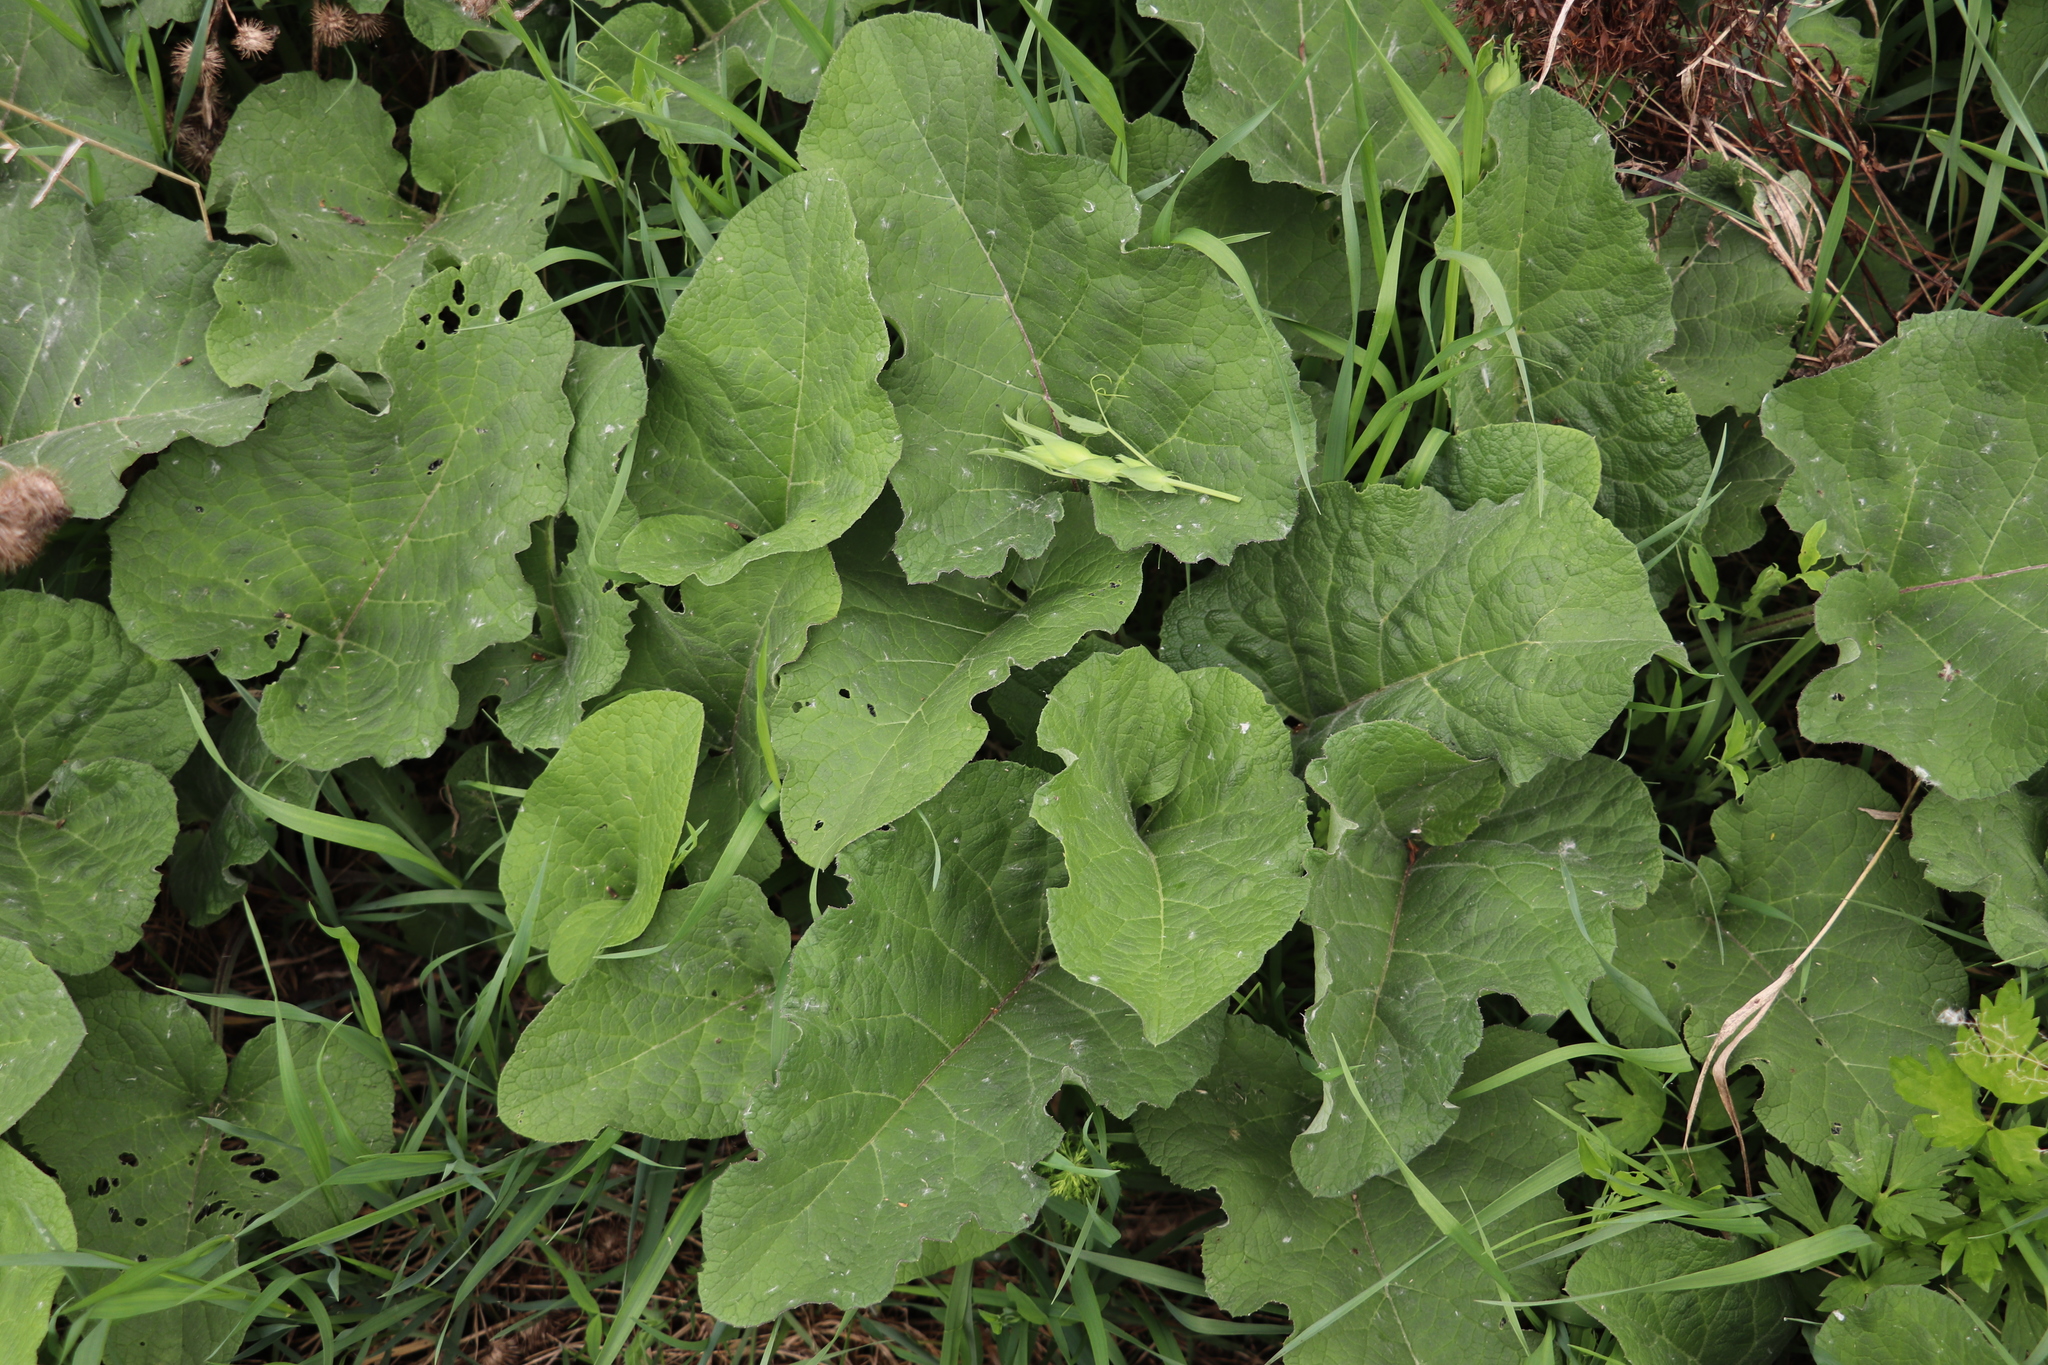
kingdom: Plantae
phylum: Tracheophyta
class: Magnoliopsida
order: Asterales
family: Asteraceae
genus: Arctium
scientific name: Arctium tomentosum
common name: Woolly burdock
